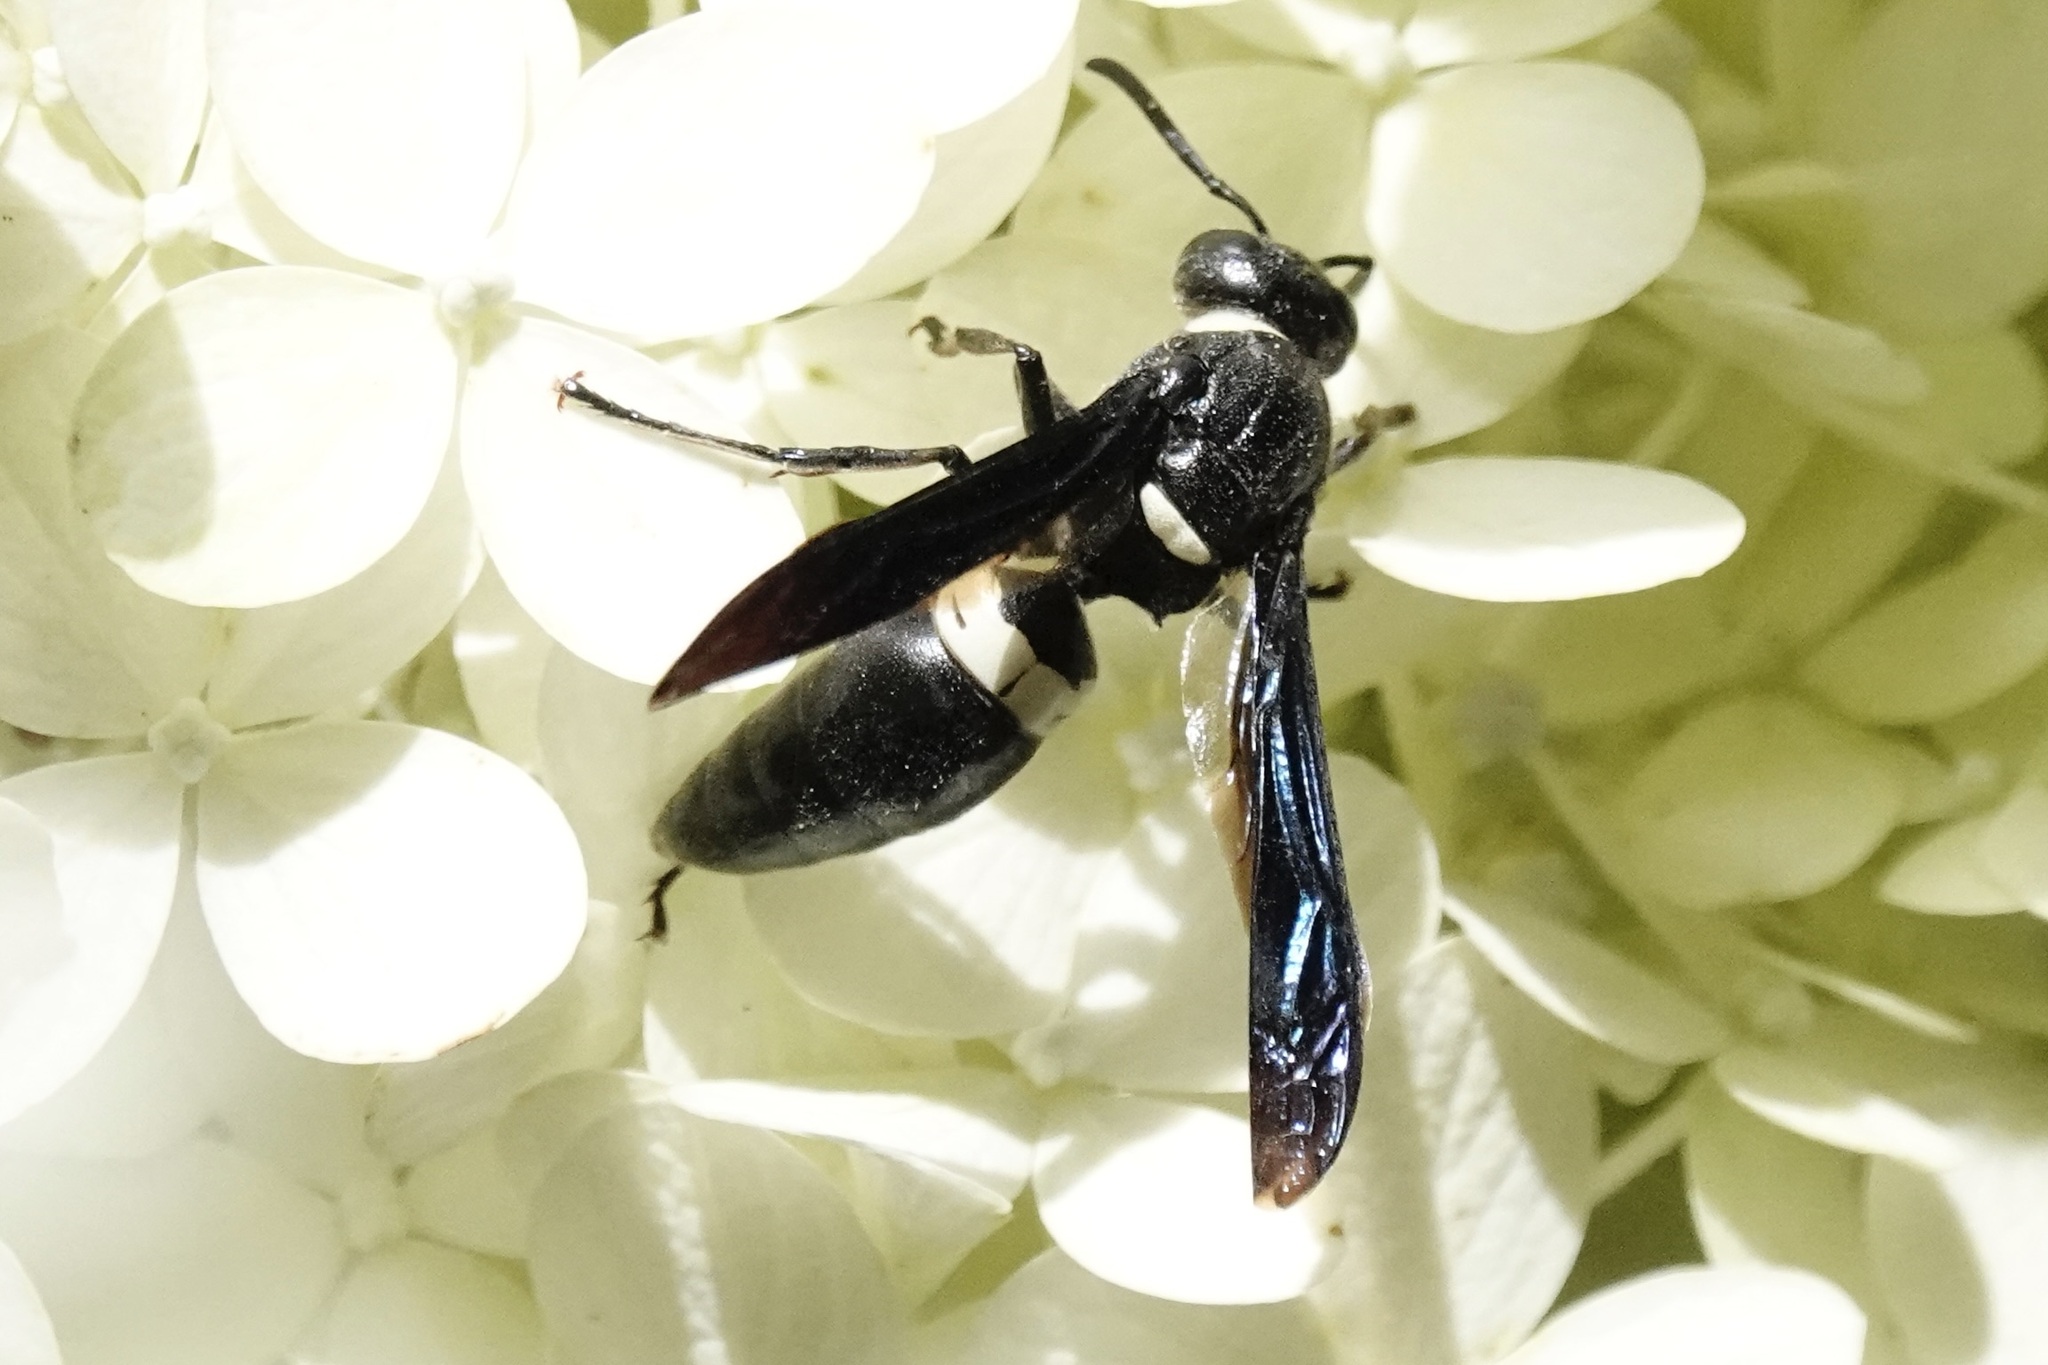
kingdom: Animalia
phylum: Arthropoda
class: Insecta
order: Hymenoptera
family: Eumenidae
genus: Monobia
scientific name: Monobia quadridens
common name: Four-toothed mason wasp
